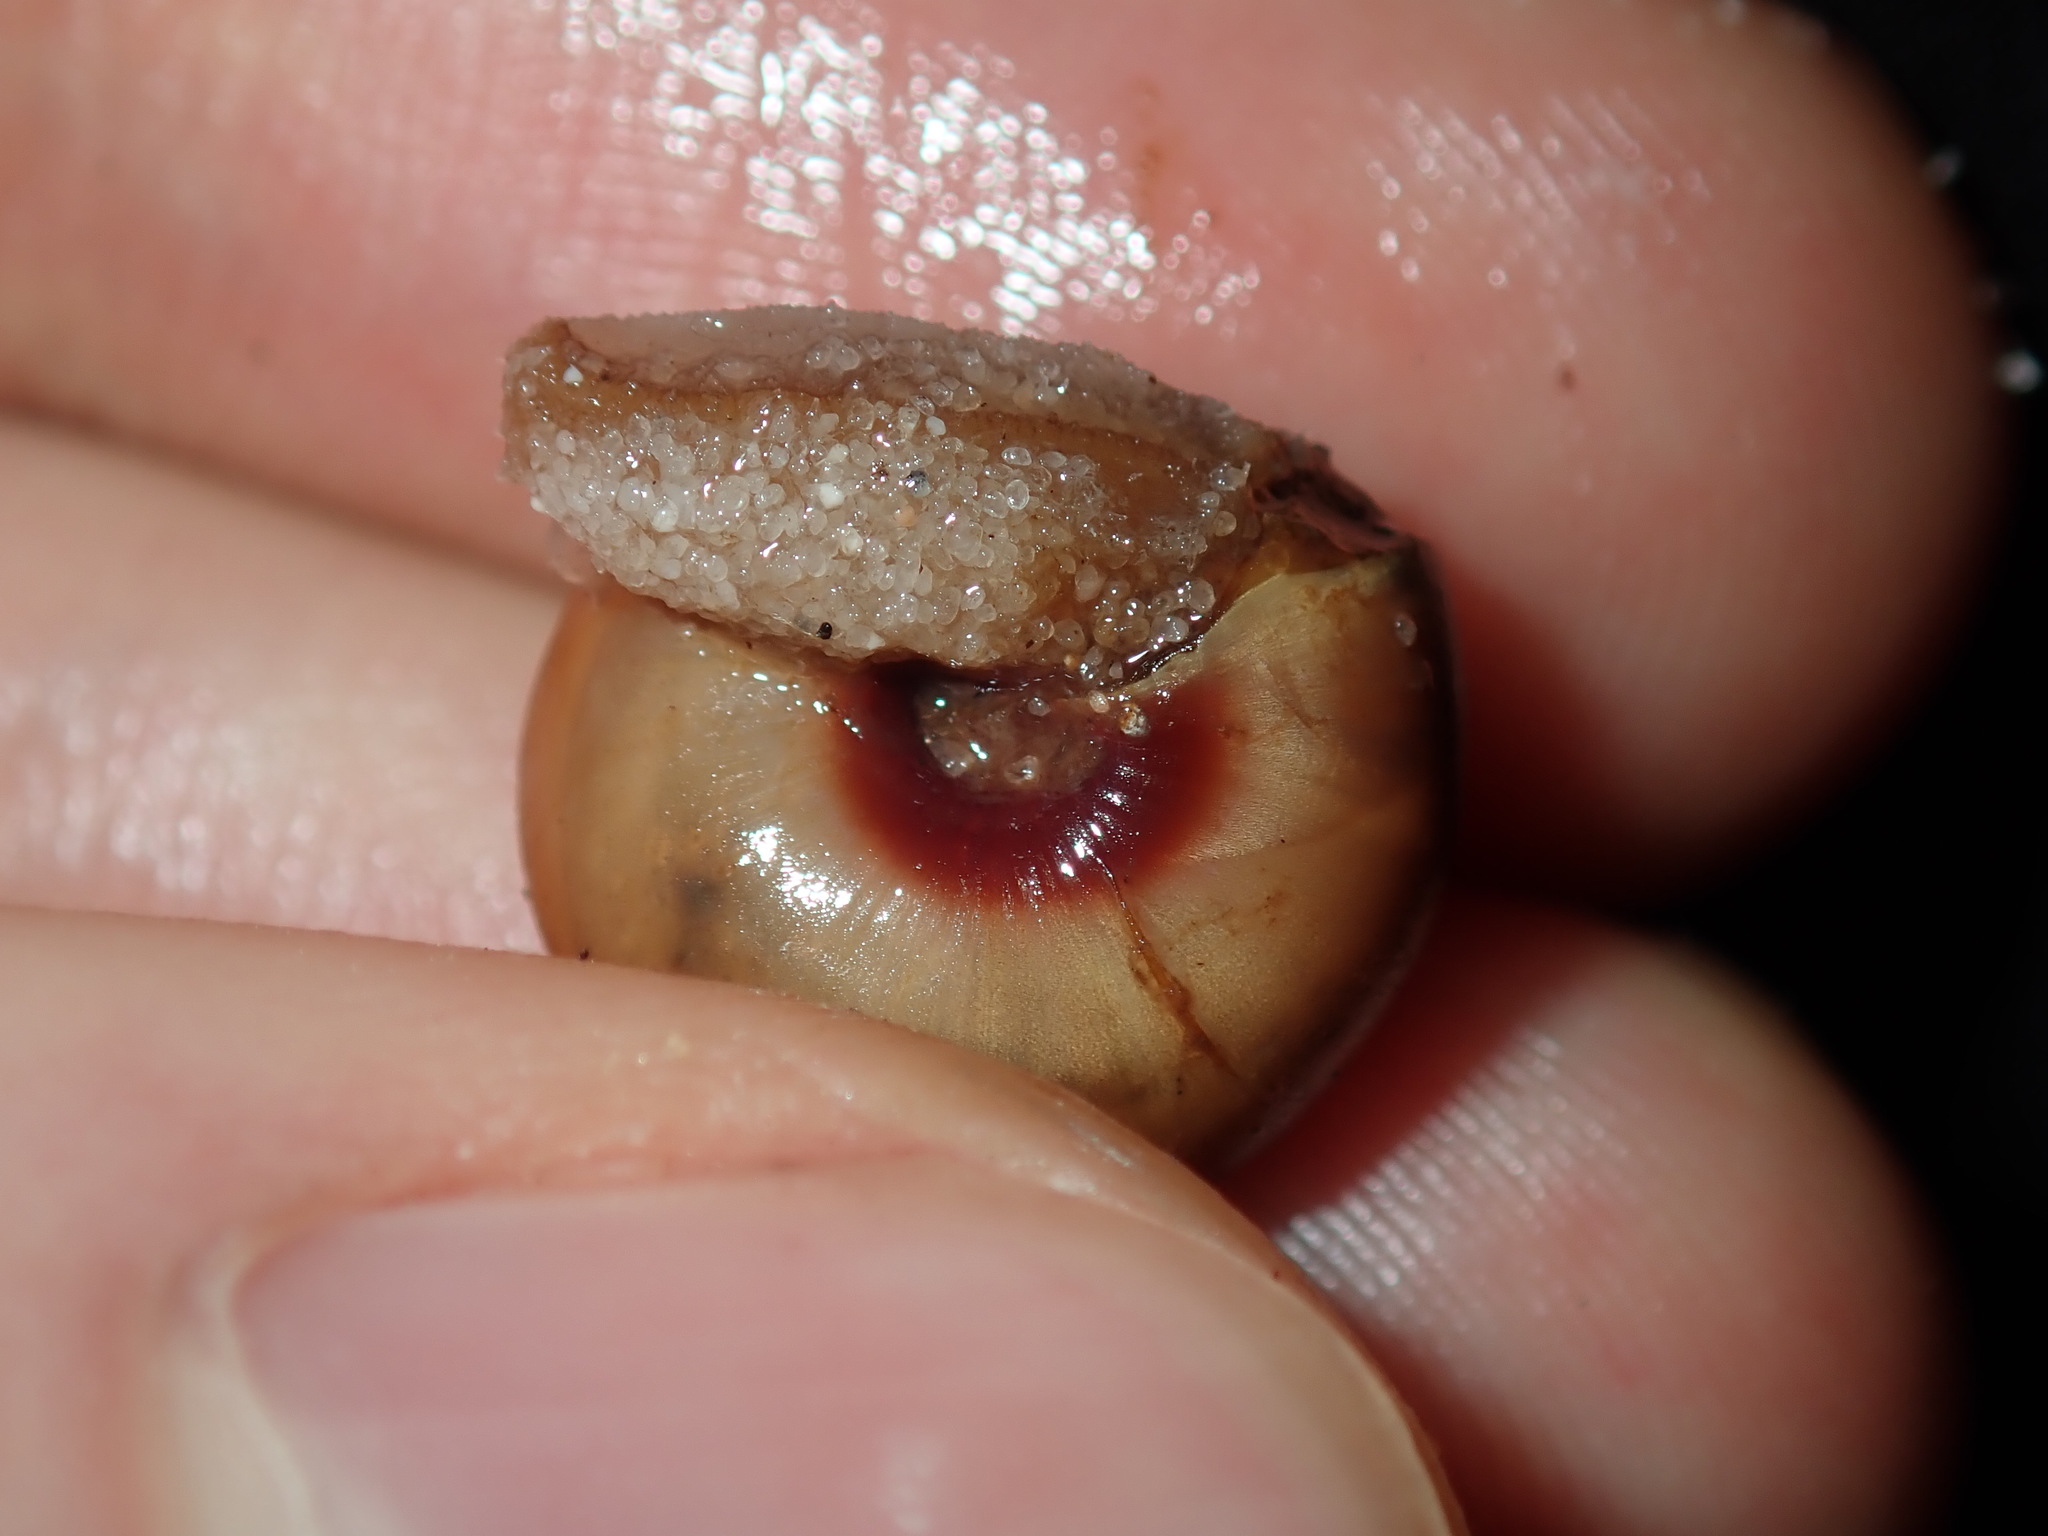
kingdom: Animalia
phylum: Mollusca
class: Gastropoda
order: Stylommatophora
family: Camaenidae
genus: Galadistes
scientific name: Galadistes akubra
